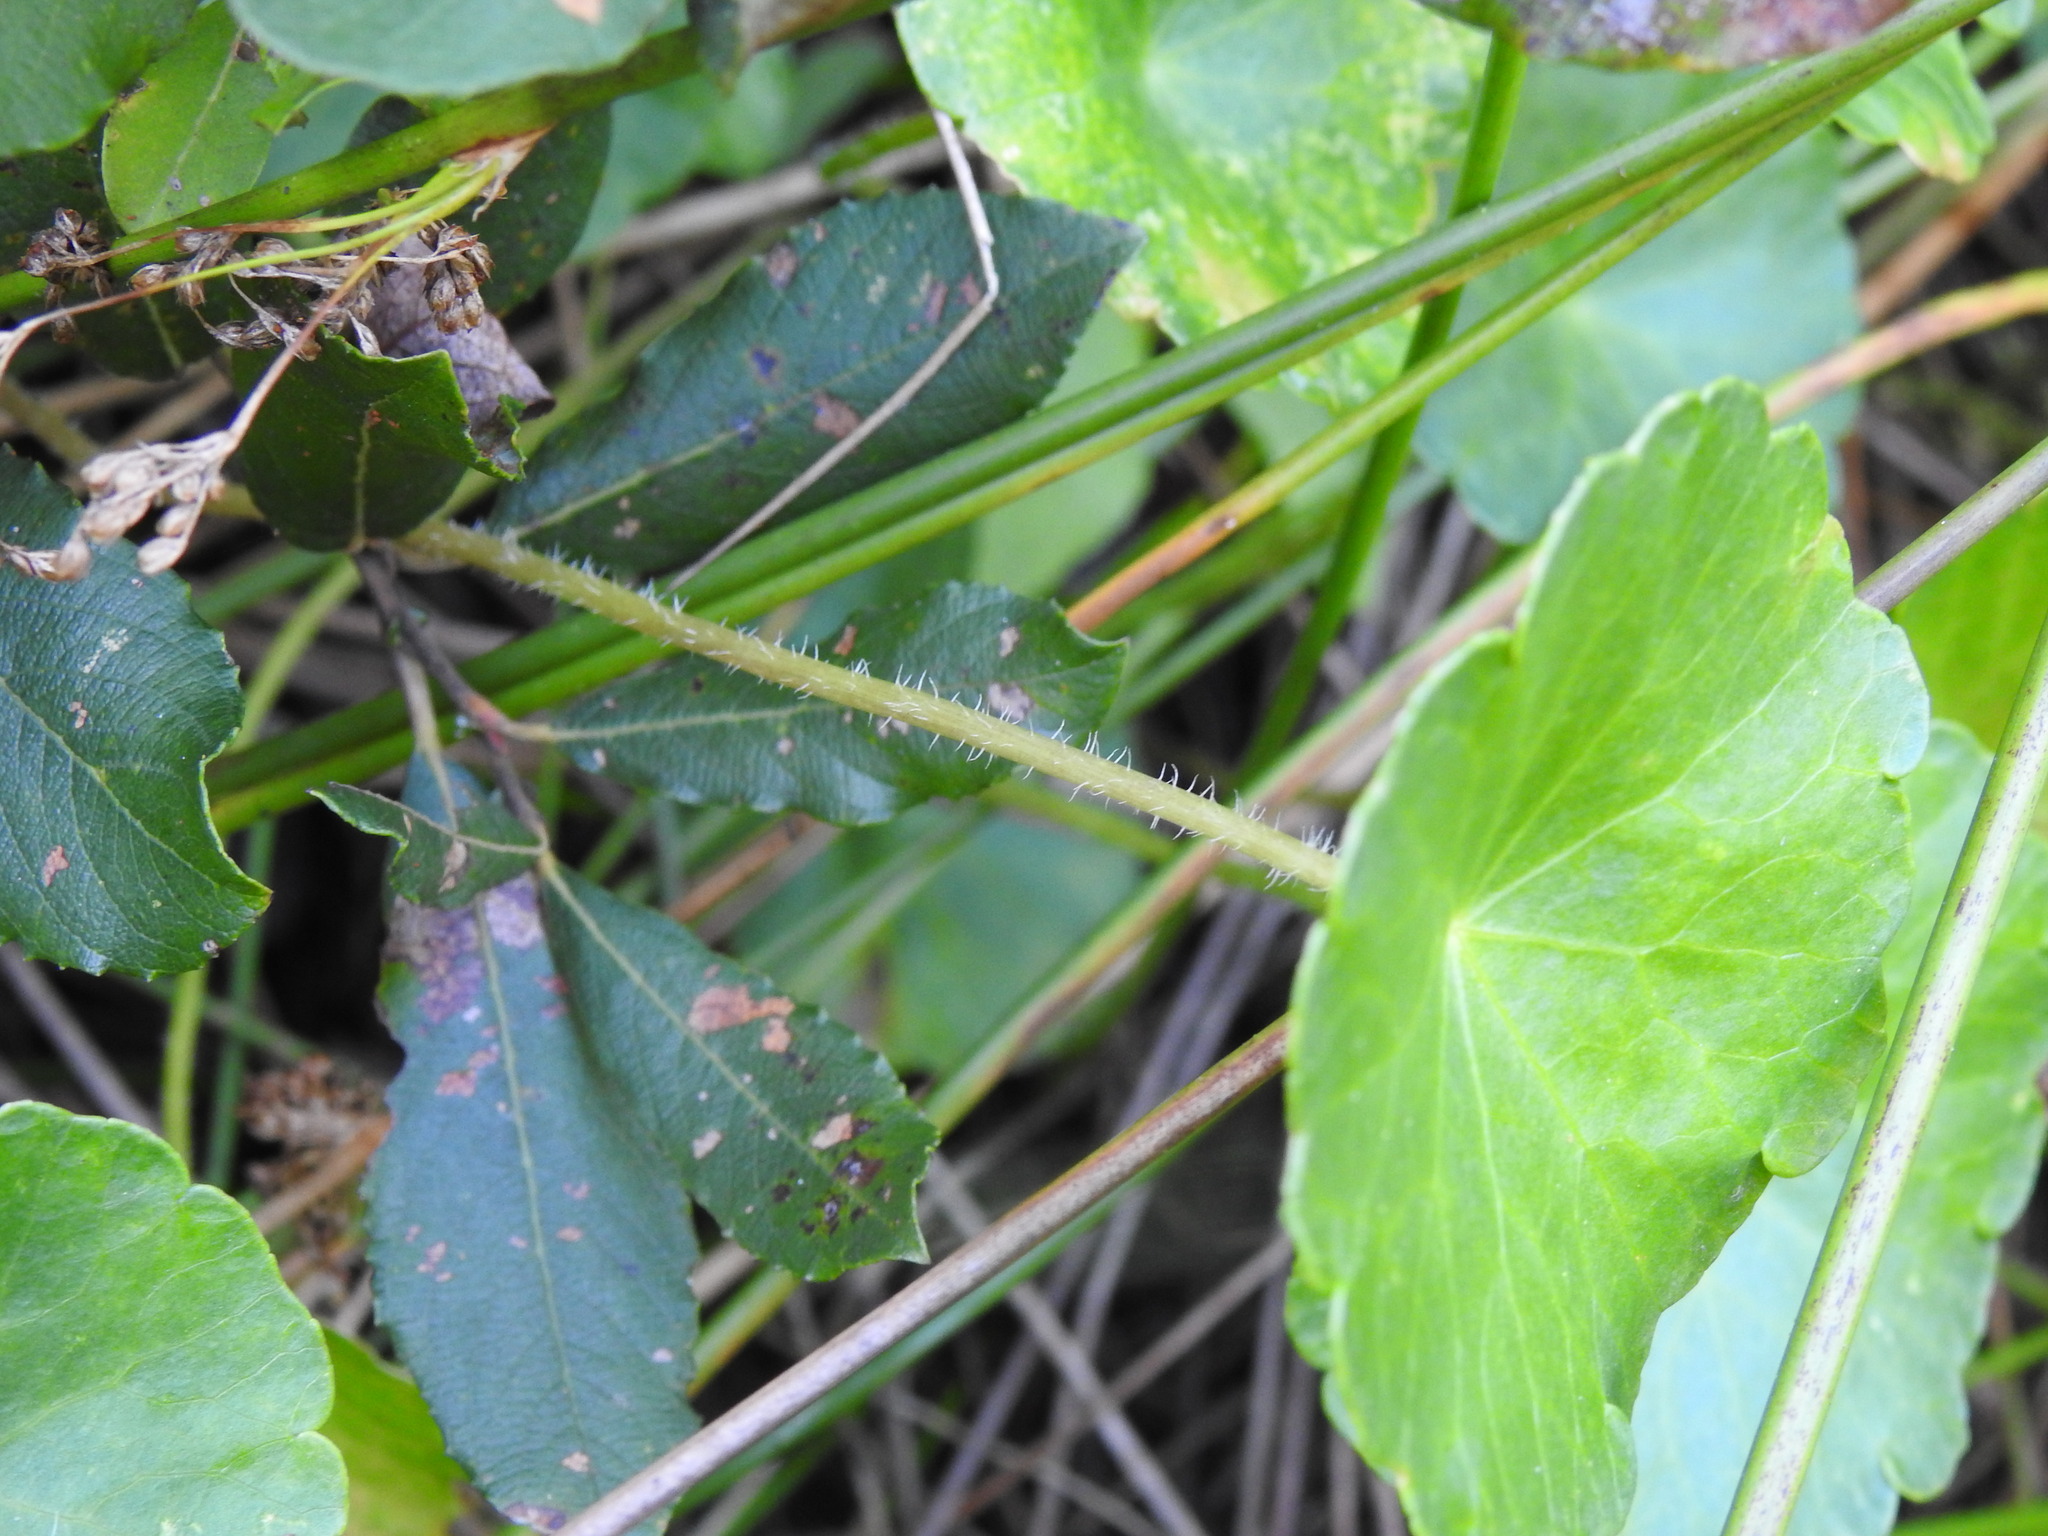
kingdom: Plantae
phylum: Tracheophyta
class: Magnoliopsida
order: Apiales
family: Araliaceae
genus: Hydrocotyle
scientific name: Hydrocotyle vulgaris
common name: Marsh pennywort
